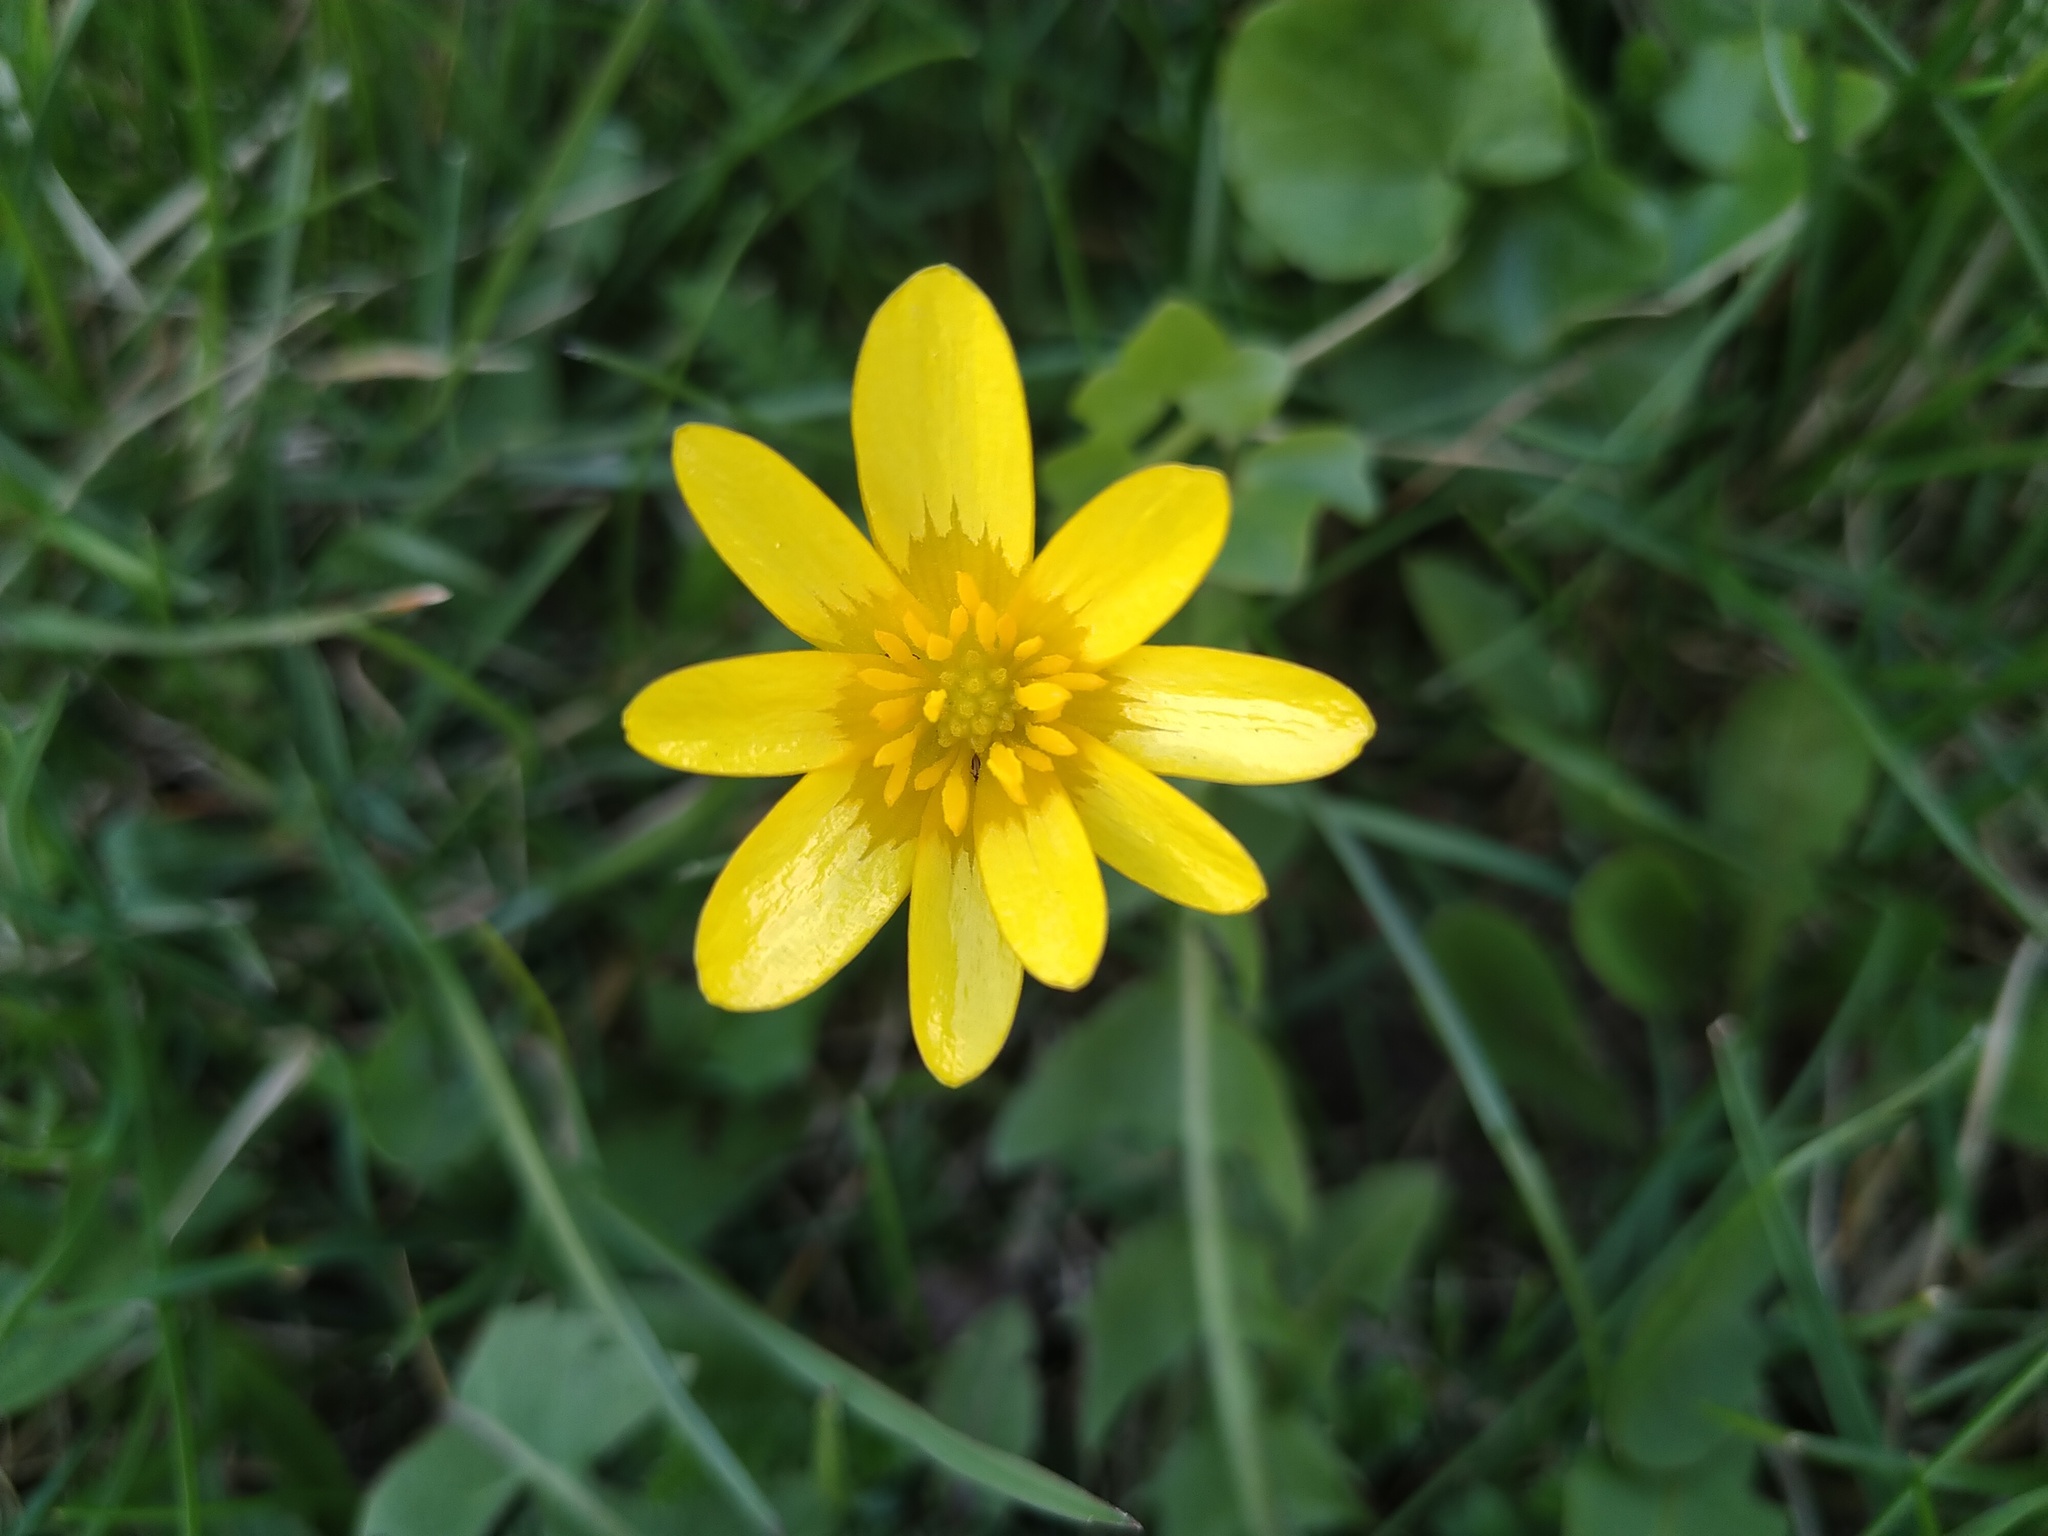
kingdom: Plantae
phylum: Tracheophyta
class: Magnoliopsida
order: Ranunculales
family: Ranunculaceae
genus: Ficaria
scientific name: Ficaria verna
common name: Lesser celandine
